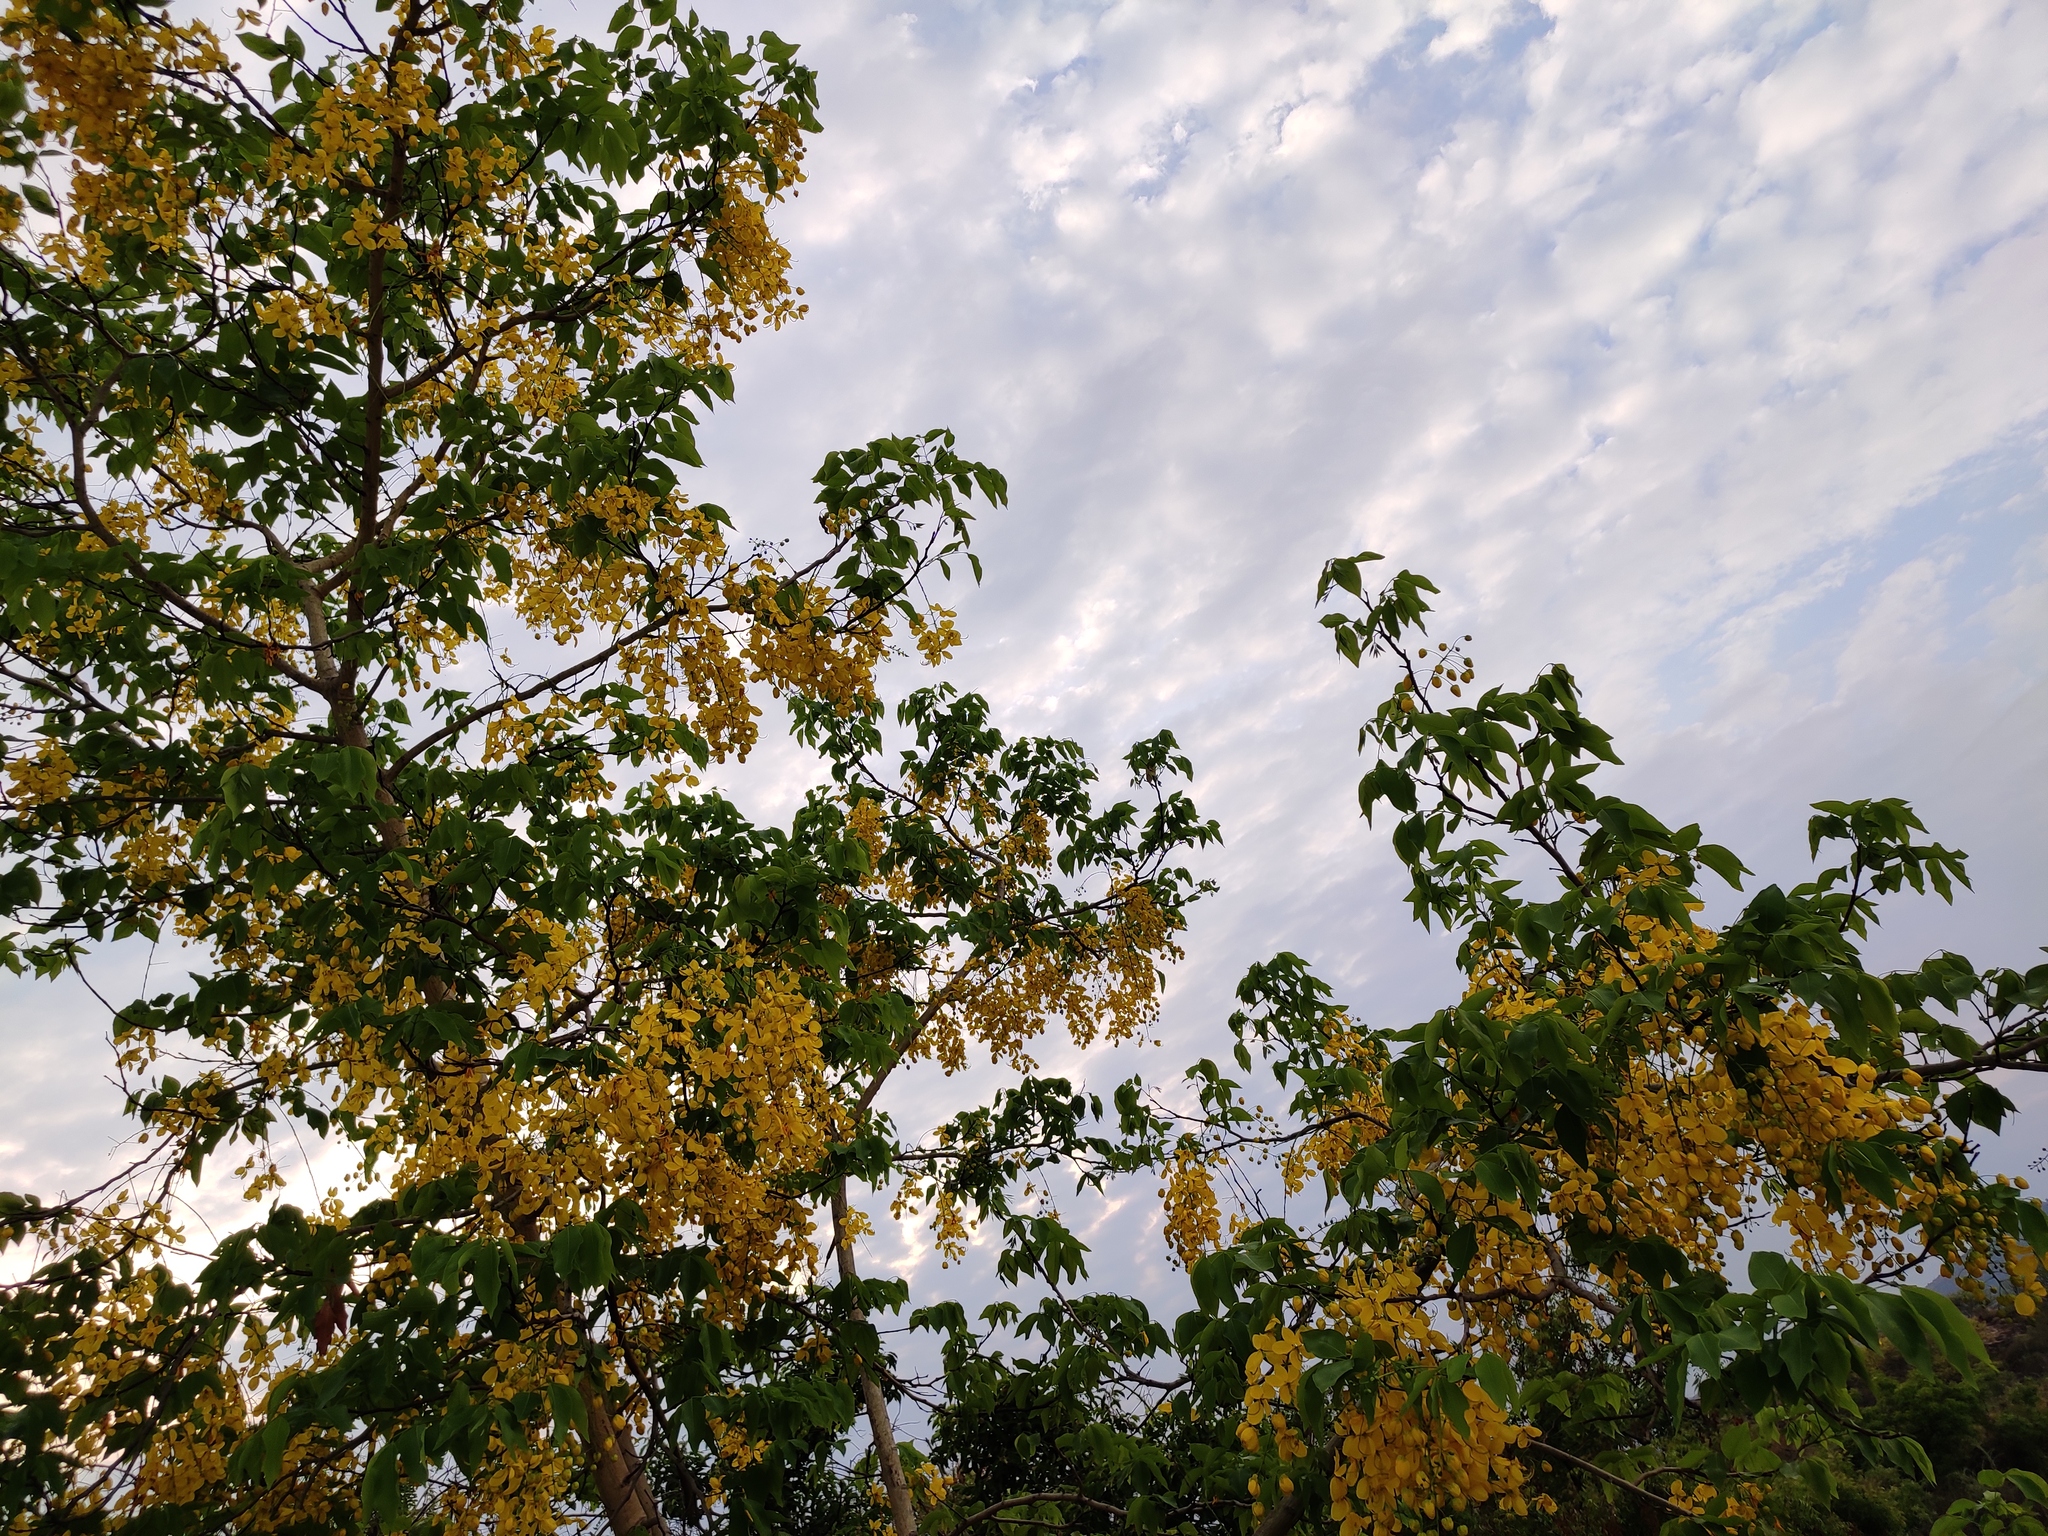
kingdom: Plantae
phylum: Tracheophyta
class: Magnoliopsida
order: Fabales
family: Fabaceae
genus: Cassia
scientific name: Cassia fistula
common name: Golden shower
